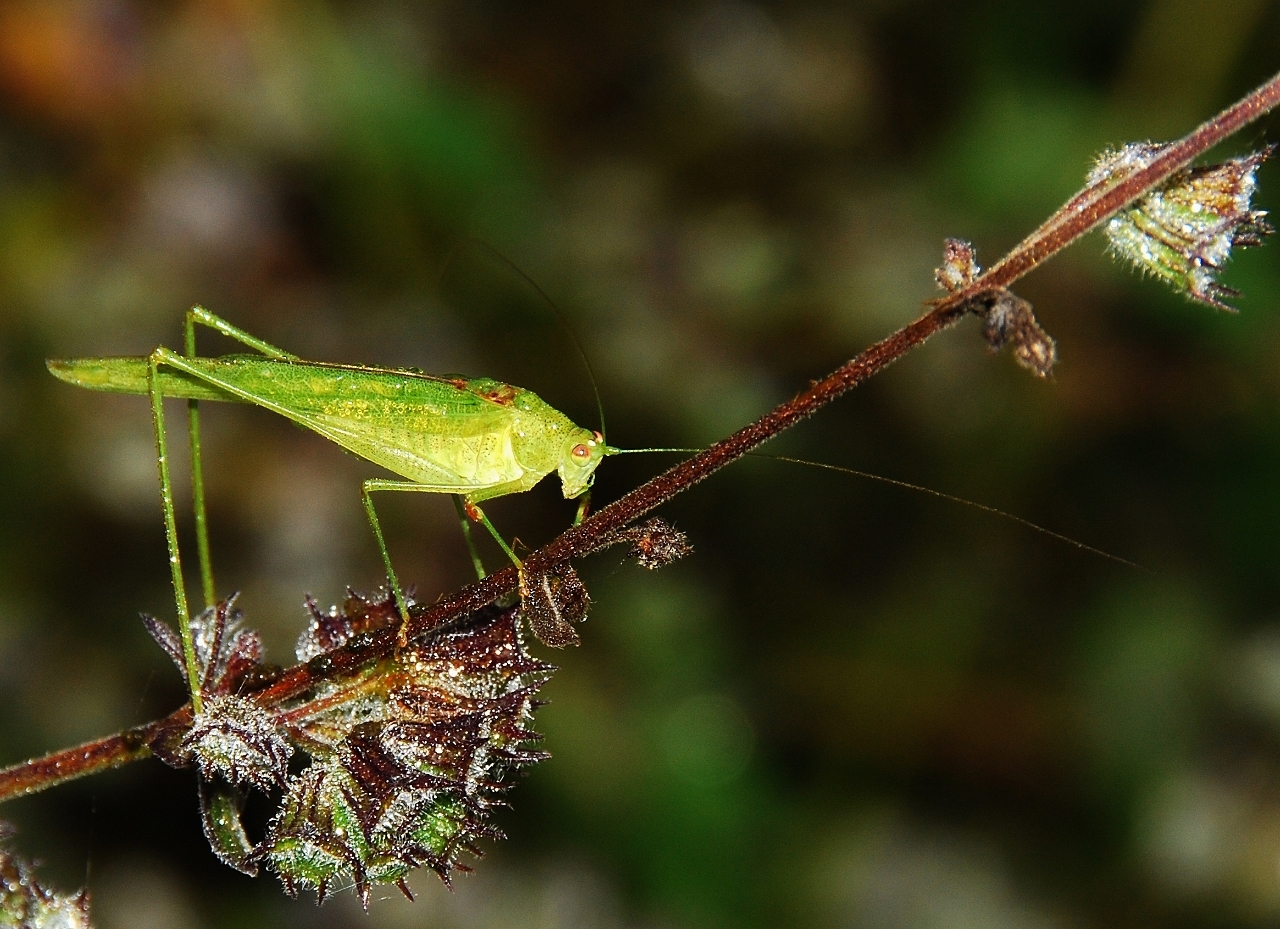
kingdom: Animalia
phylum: Arthropoda
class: Insecta
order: Orthoptera
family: Tettigoniidae
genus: Phaneroptera
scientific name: Phaneroptera sparsa
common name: Sickle-bearing leaf katydid
